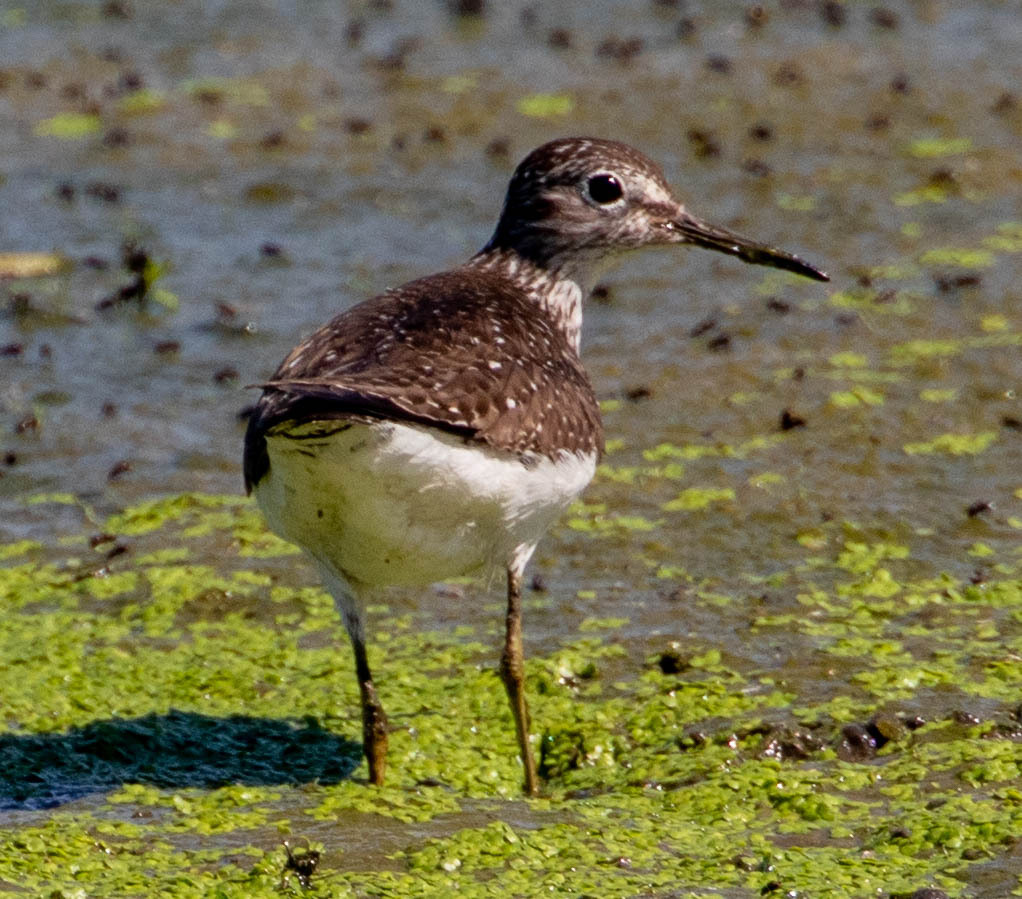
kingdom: Animalia
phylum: Chordata
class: Aves
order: Charadriiformes
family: Scolopacidae
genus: Tringa
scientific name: Tringa solitaria
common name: Solitary sandpiper
